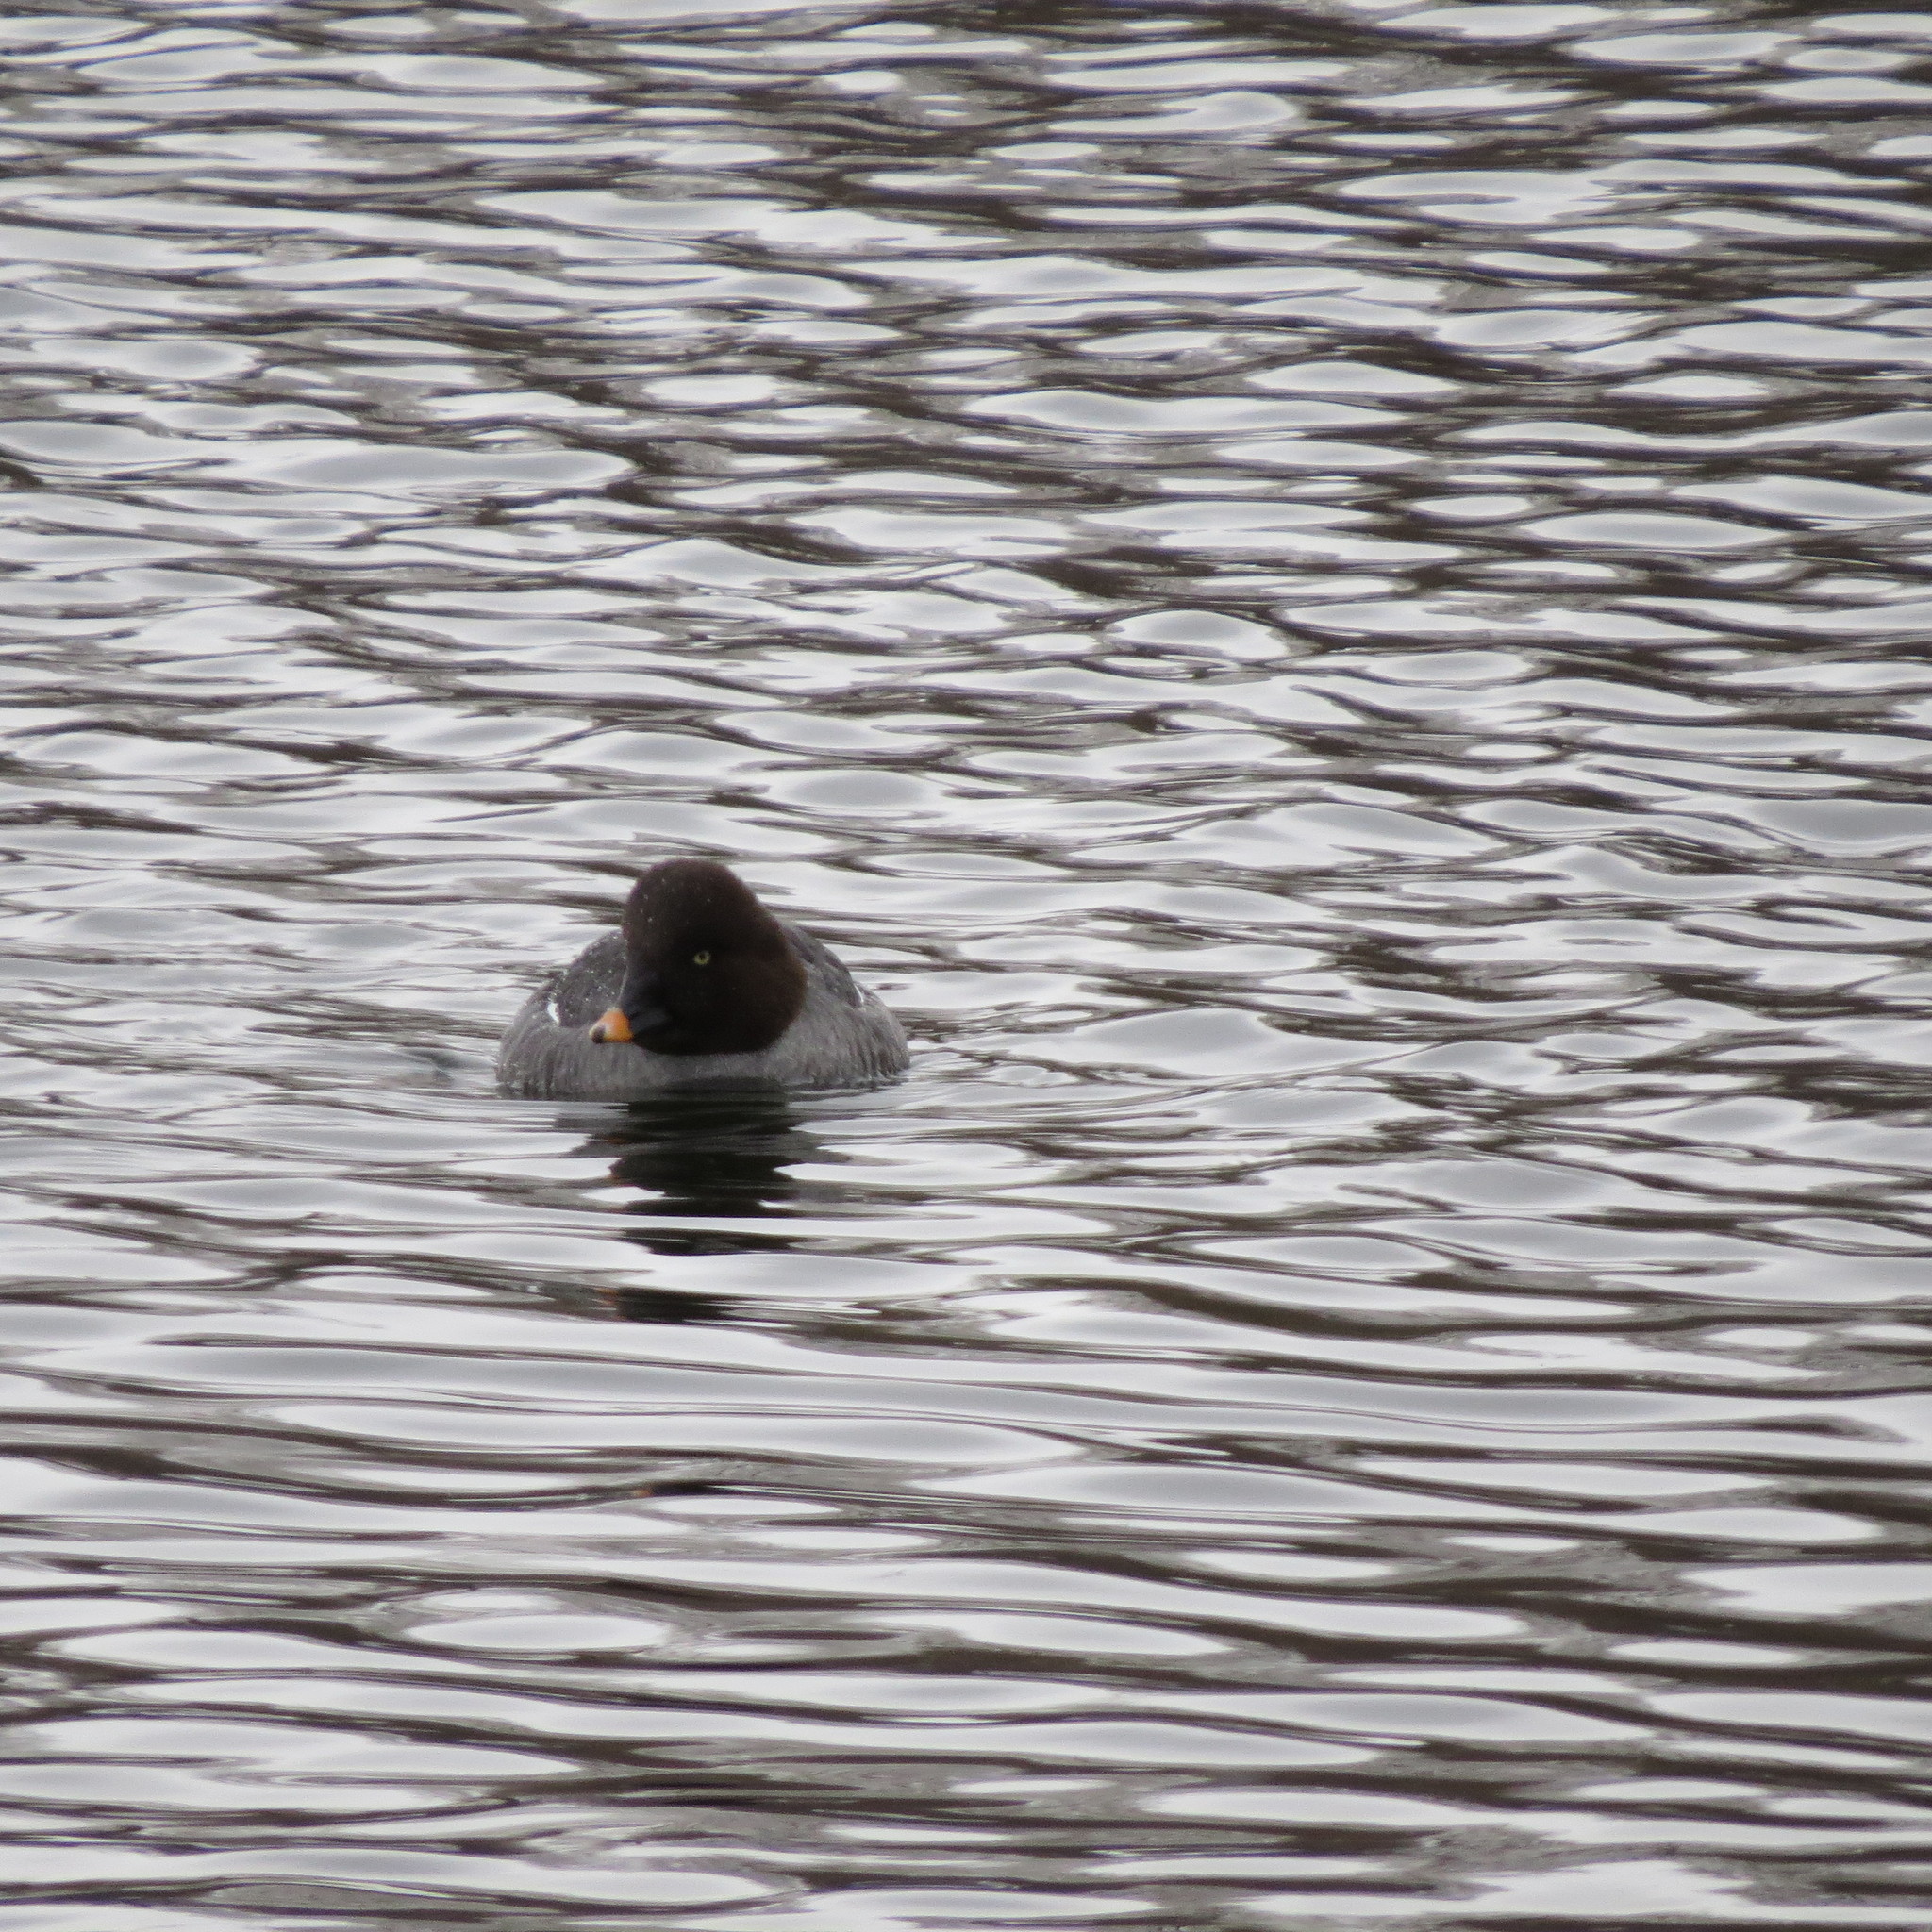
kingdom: Animalia
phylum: Chordata
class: Aves
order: Anseriformes
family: Anatidae
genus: Bucephala
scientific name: Bucephala clangula
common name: Common goldeneye
